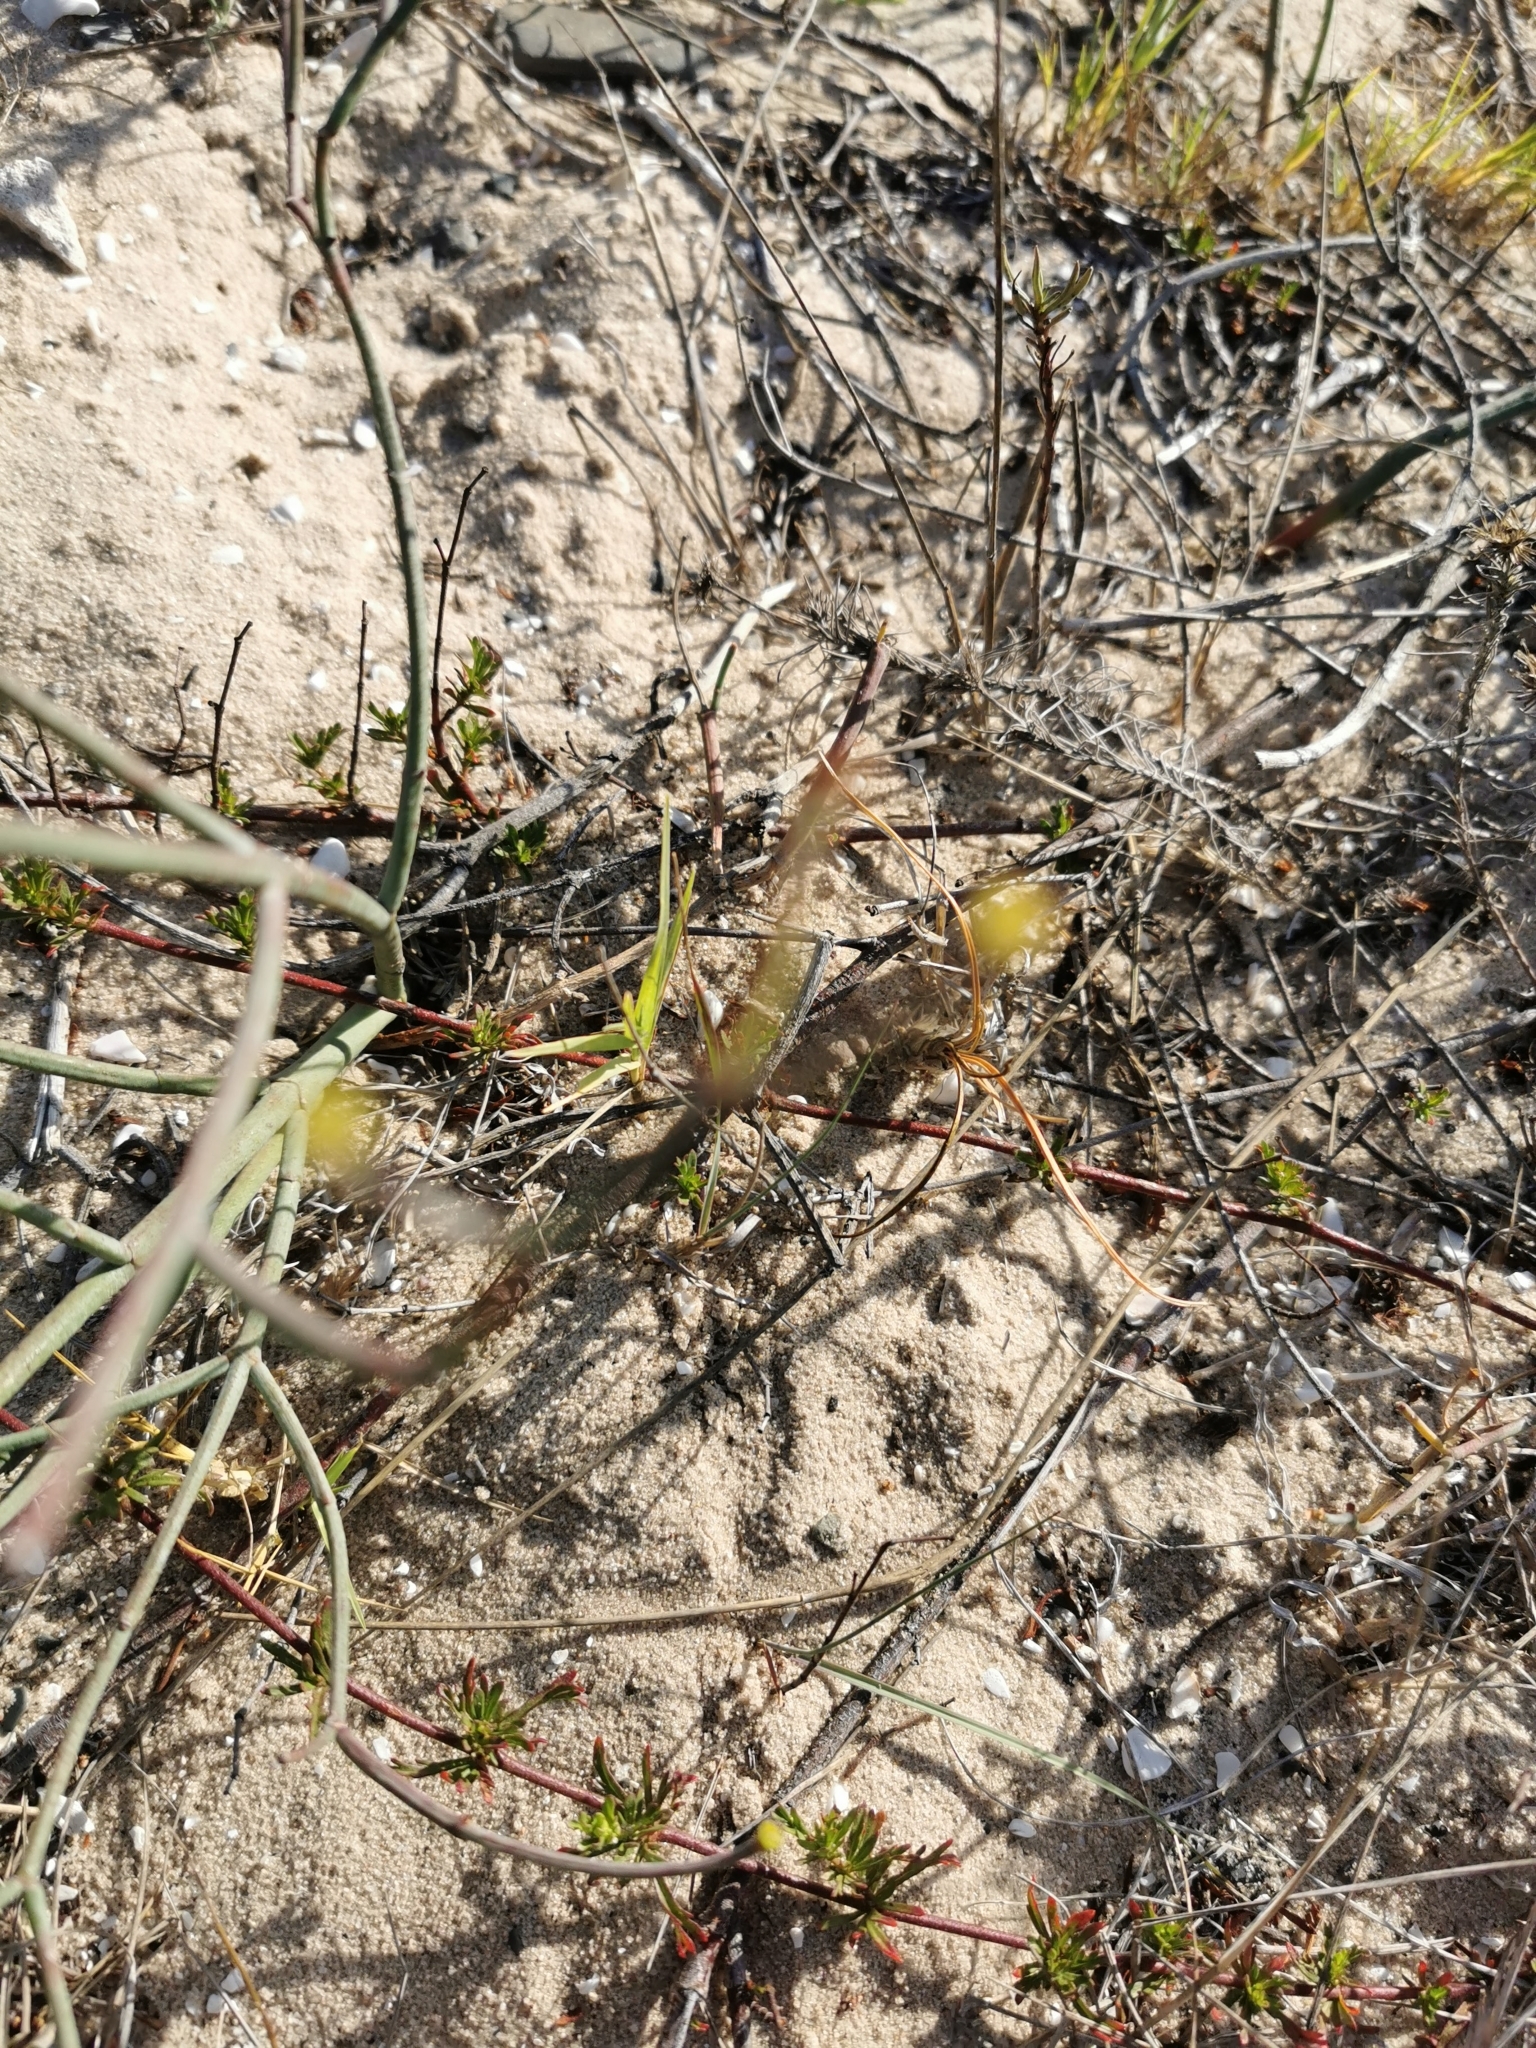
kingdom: Plantae
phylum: Tracheophyta
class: Magnoliopsida
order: Malpighiales
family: Euphorbiaceae
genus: Euphorbia
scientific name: Euphorbia tenax
